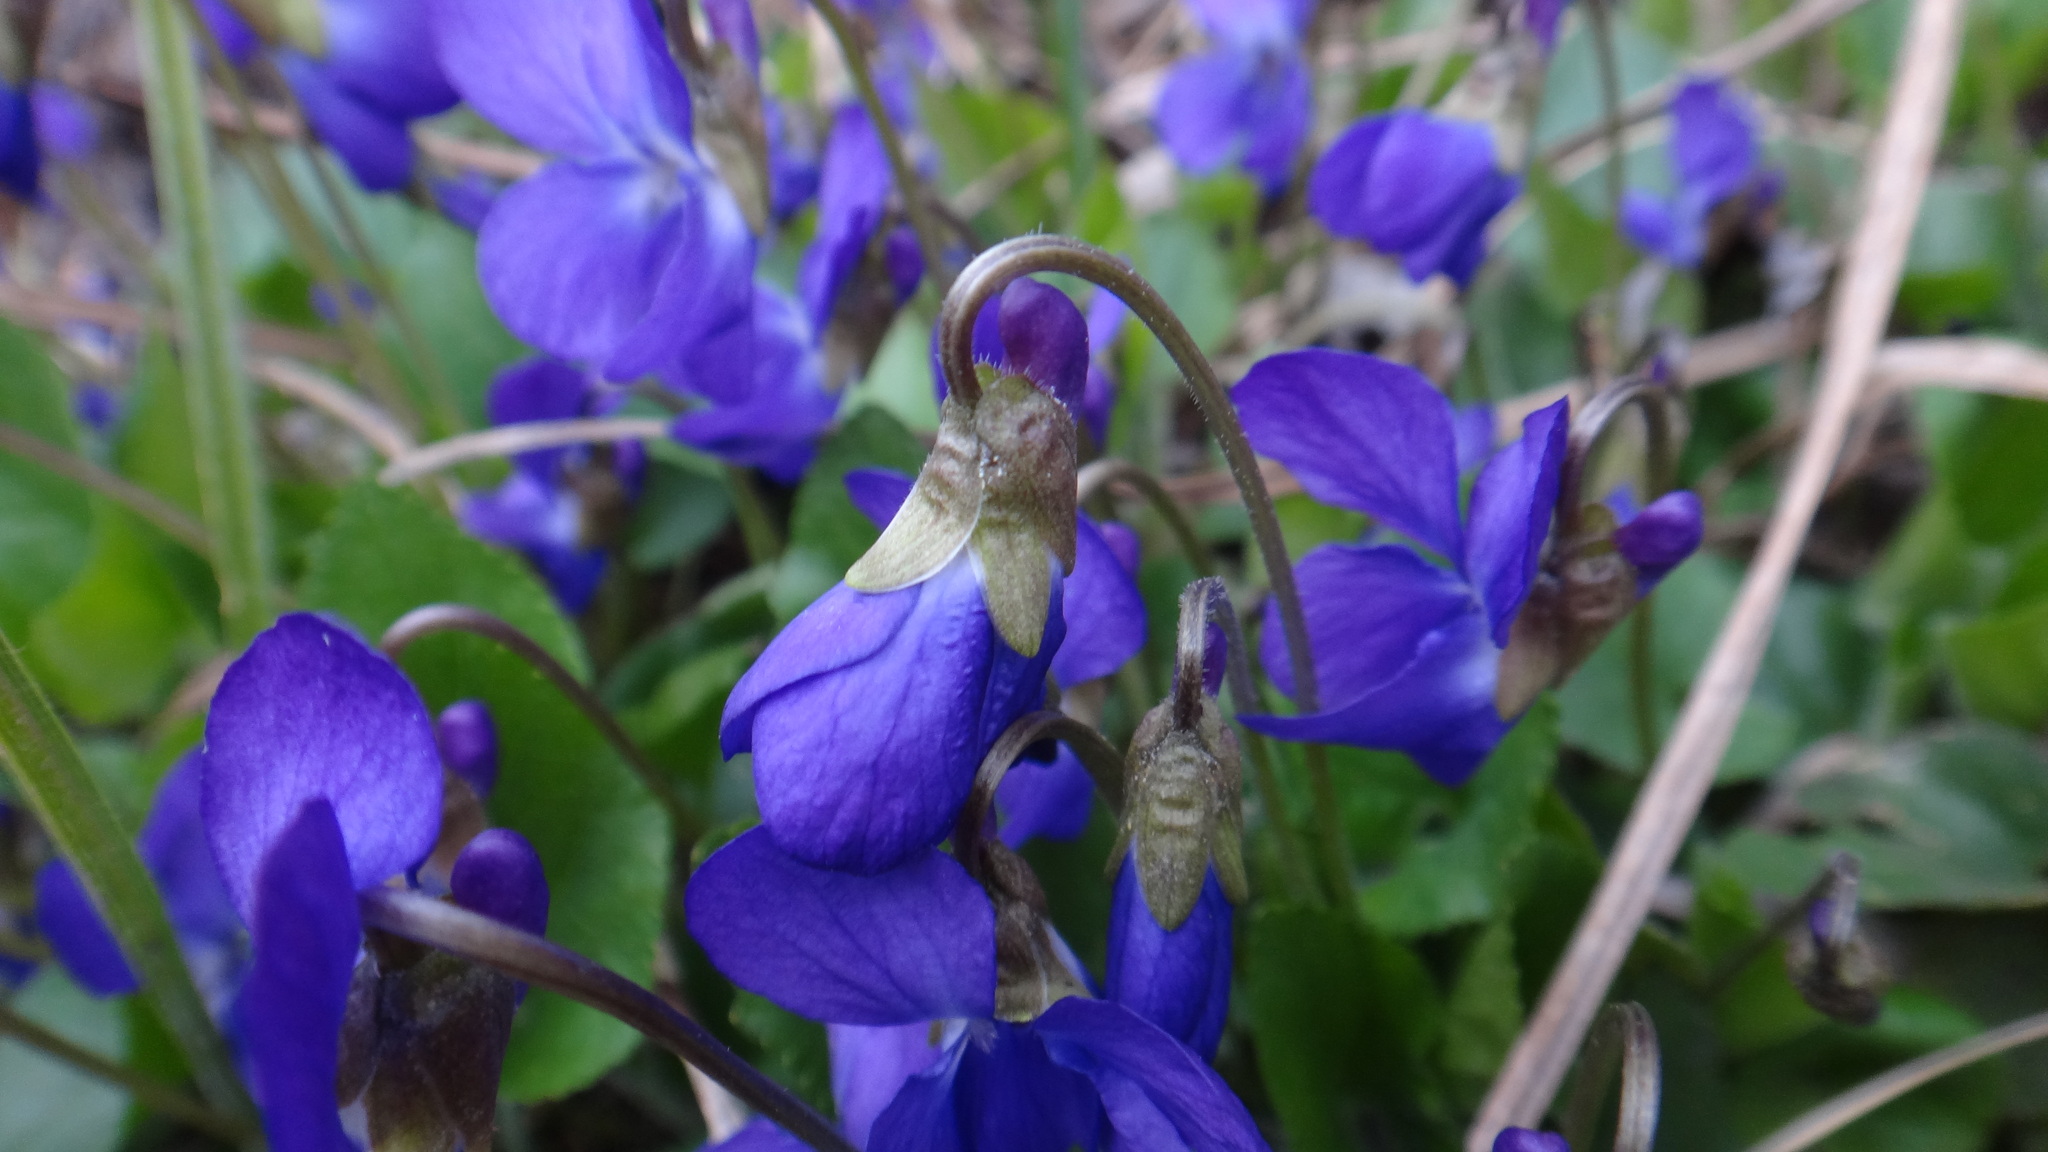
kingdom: Plantae
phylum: Tracheophyta
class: Magnoliopsida
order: Malpighiales
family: Violaceae
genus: Viola
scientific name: Viola odorata
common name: Sweet violet
